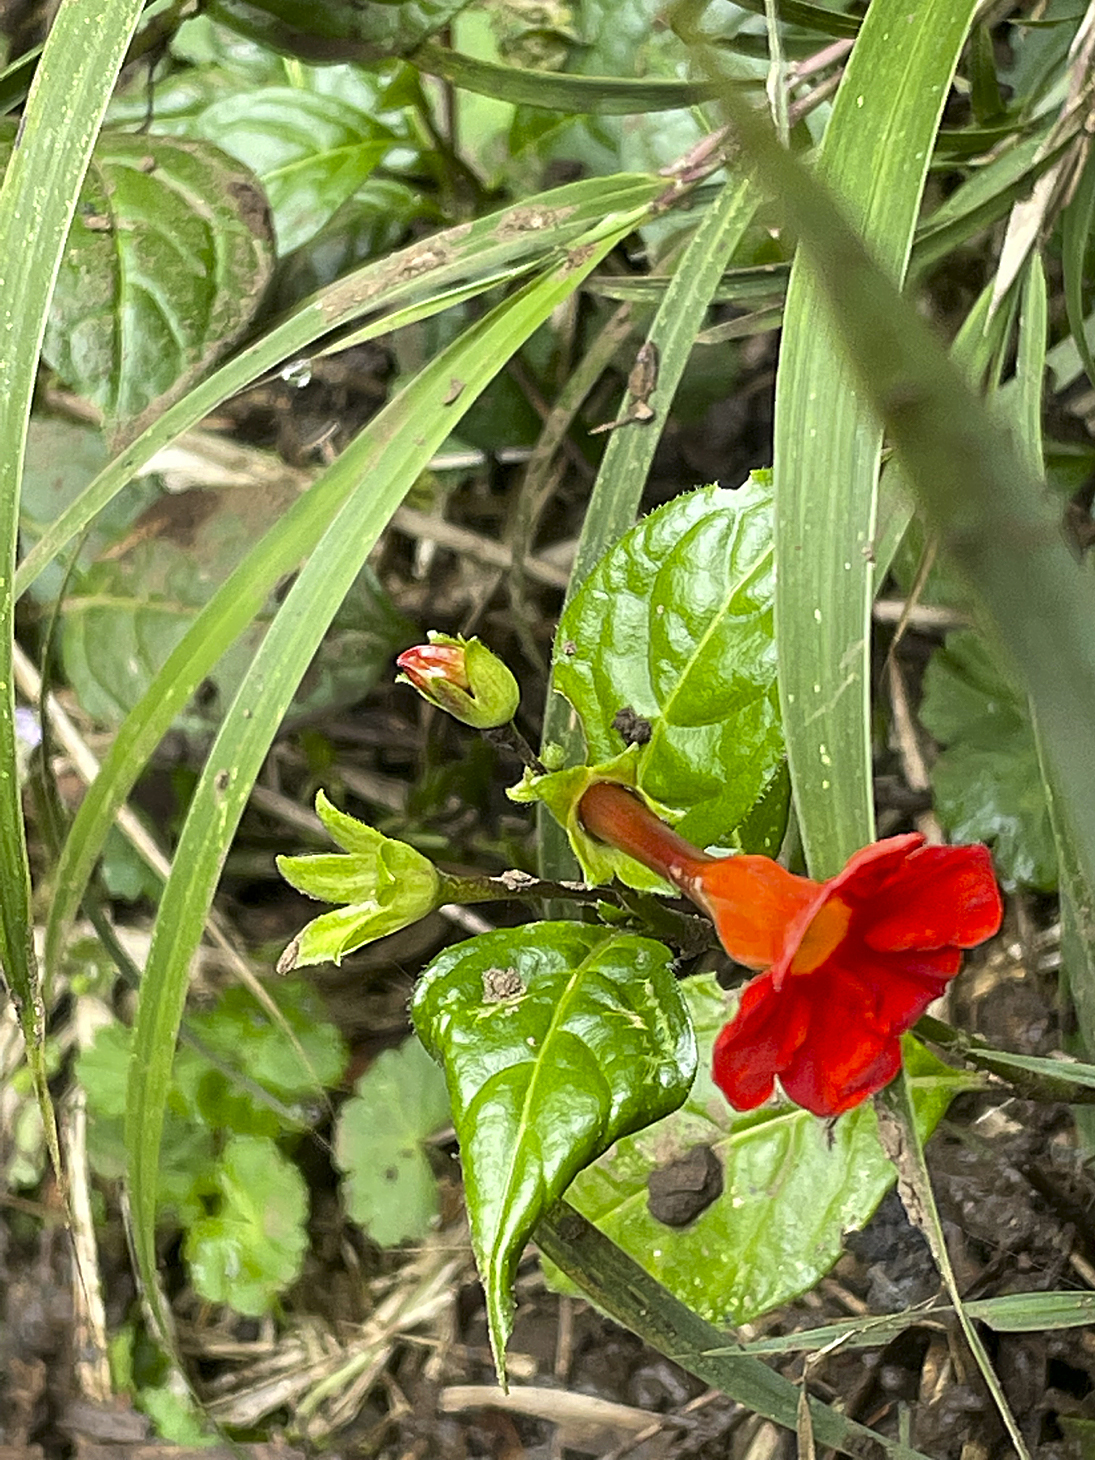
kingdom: Plantae
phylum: Tracheophyta
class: Magnoliopsida
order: Solanales
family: Solanaceae
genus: Plowmania
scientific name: Plowmania nyctaginoides
